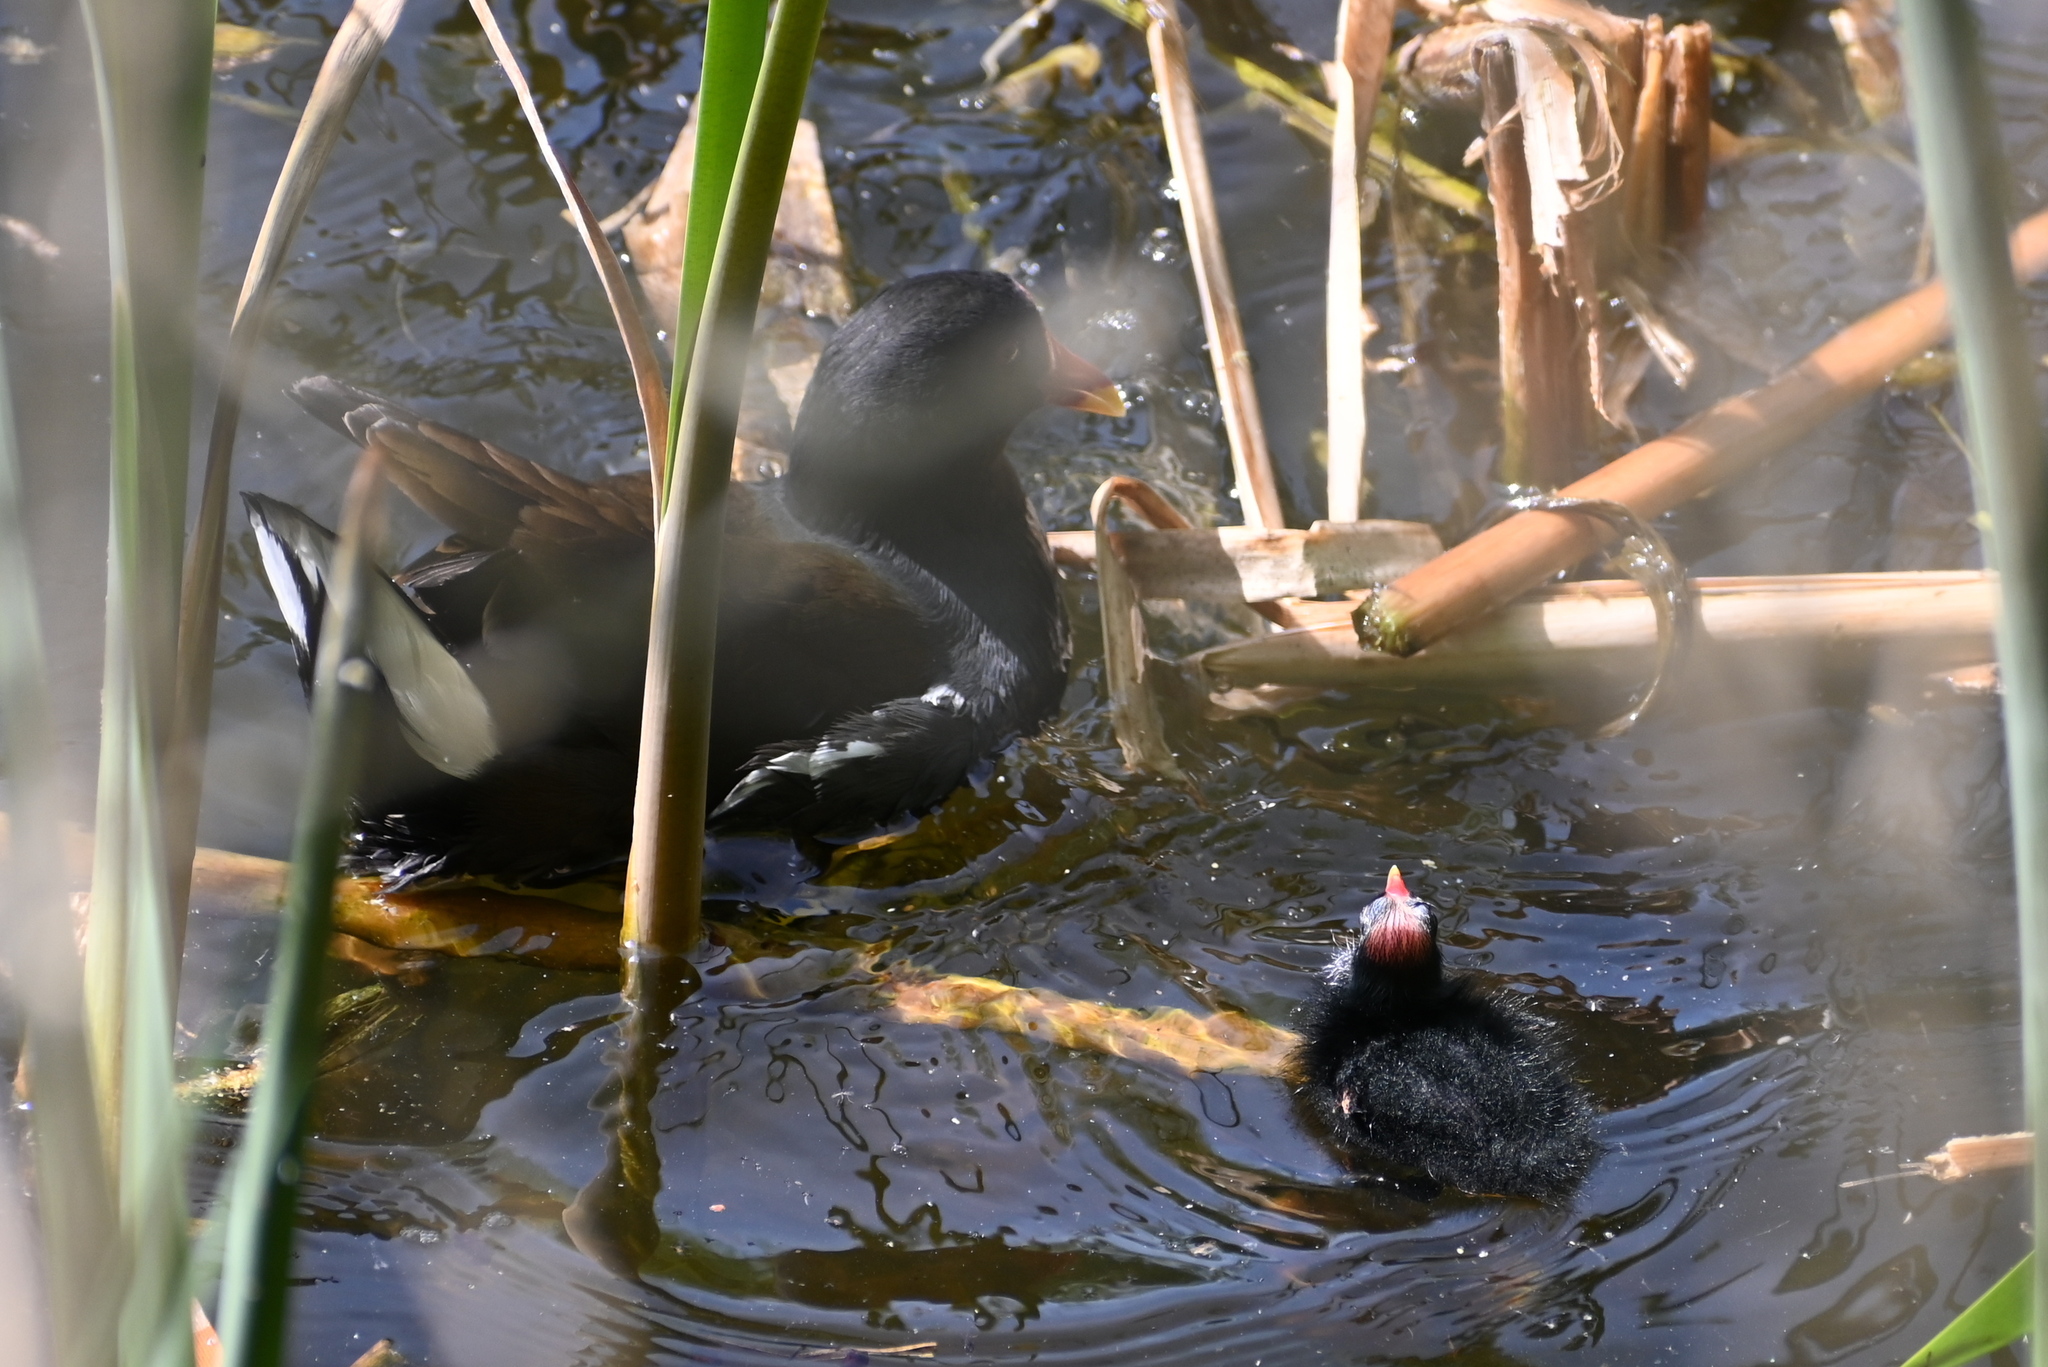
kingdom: Animalia
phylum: Chordata
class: Aves
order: Gruiformes
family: Rallidae
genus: Gallinula
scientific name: Gallinula chloropus
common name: Common moorhen
